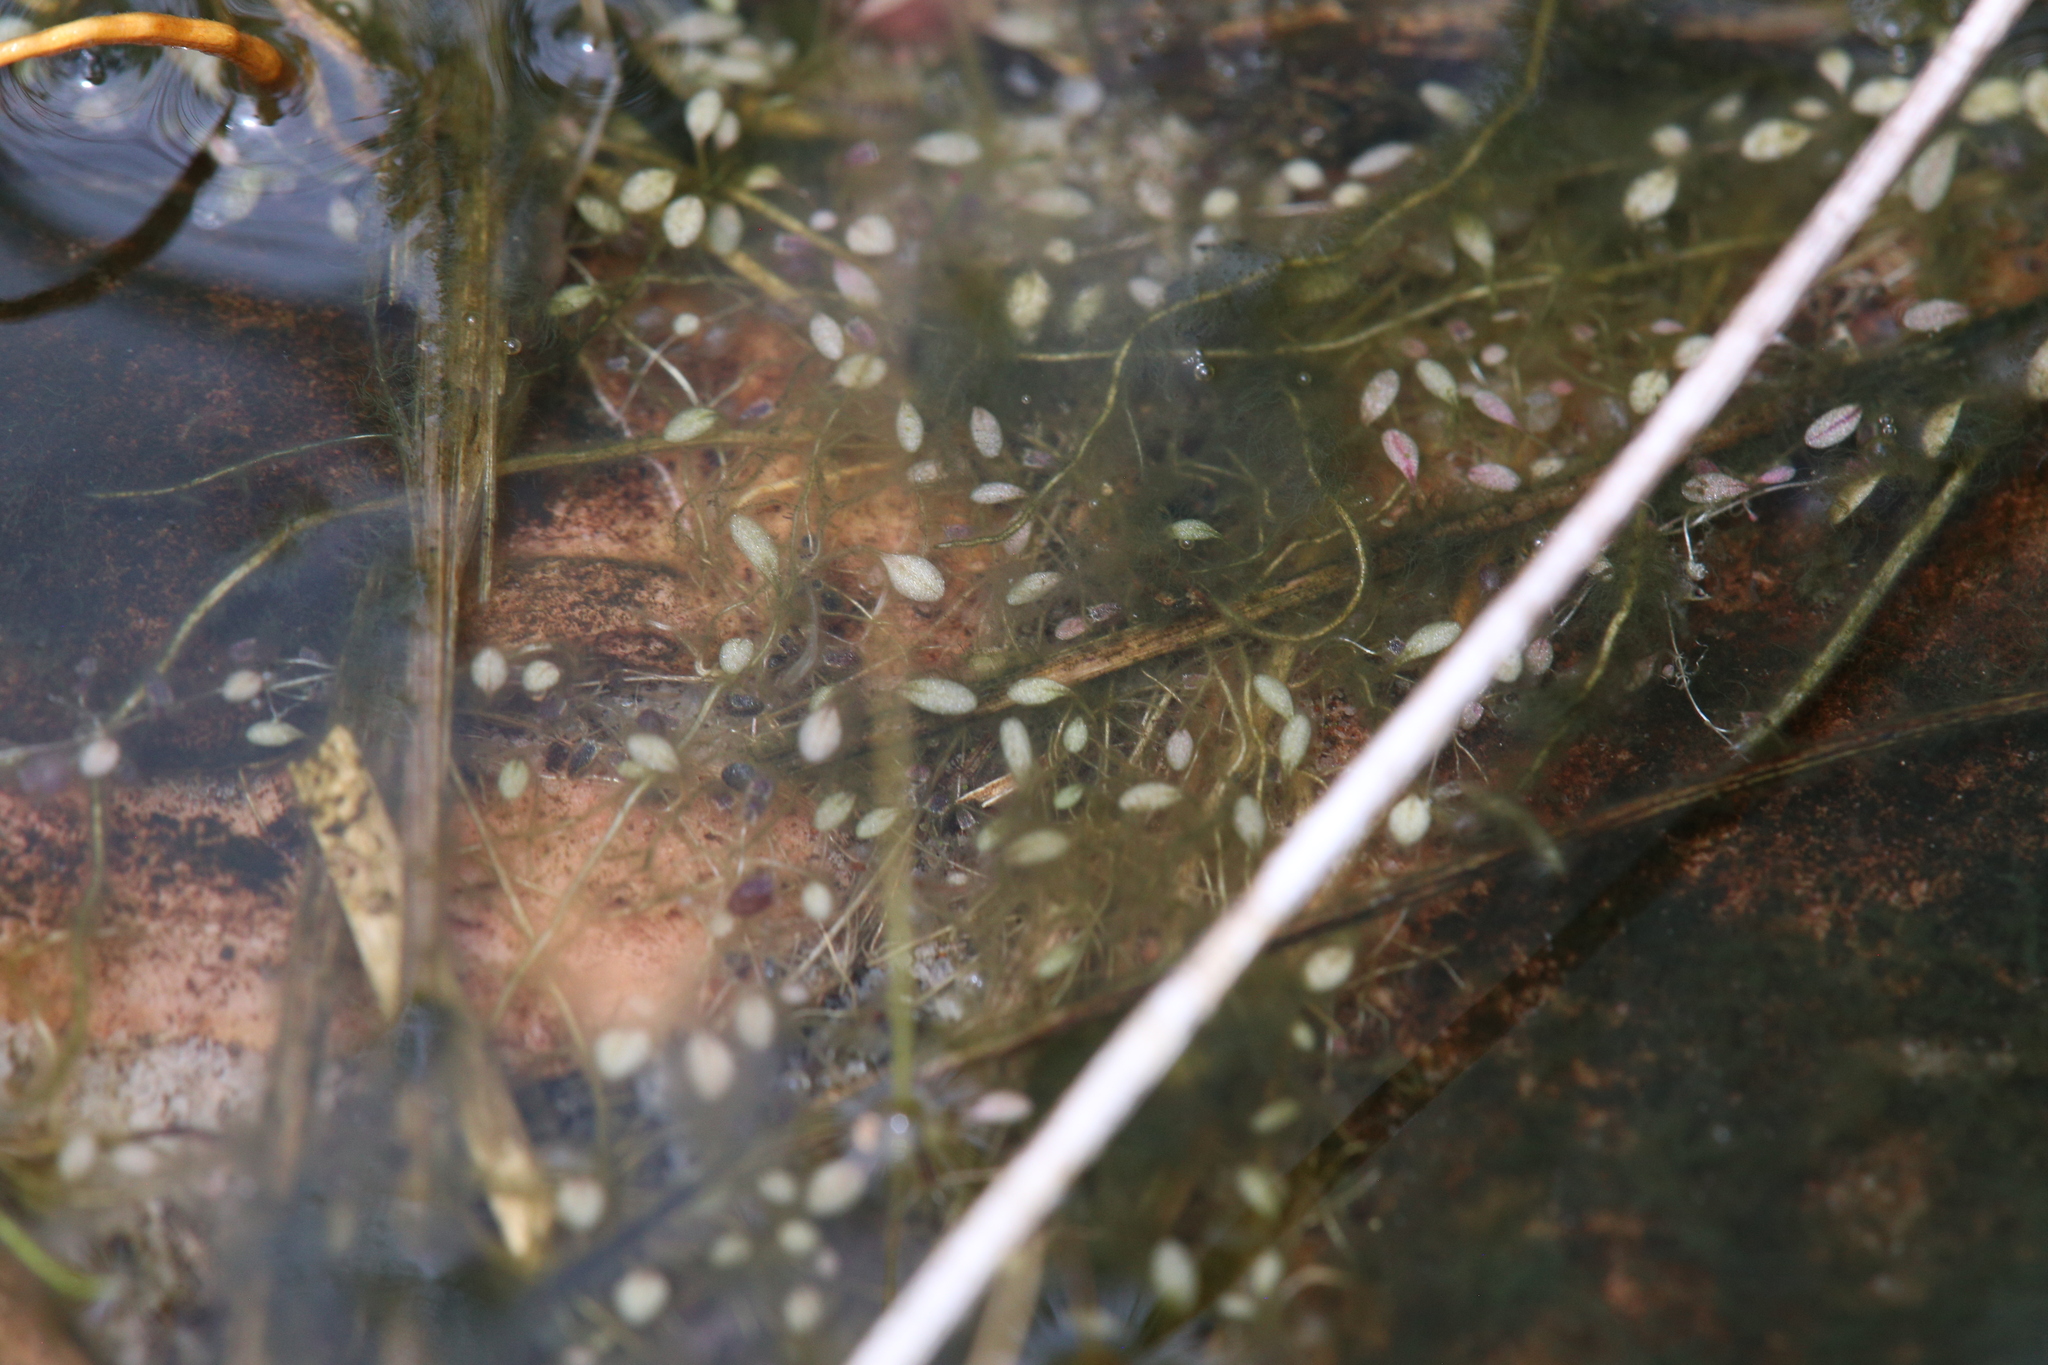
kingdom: Plantae
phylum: Tracheophyta
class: Magnoliopsida
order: Lamiales
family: Lentibulariaceae
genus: Utricularia
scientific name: Utricularia capilliflora
